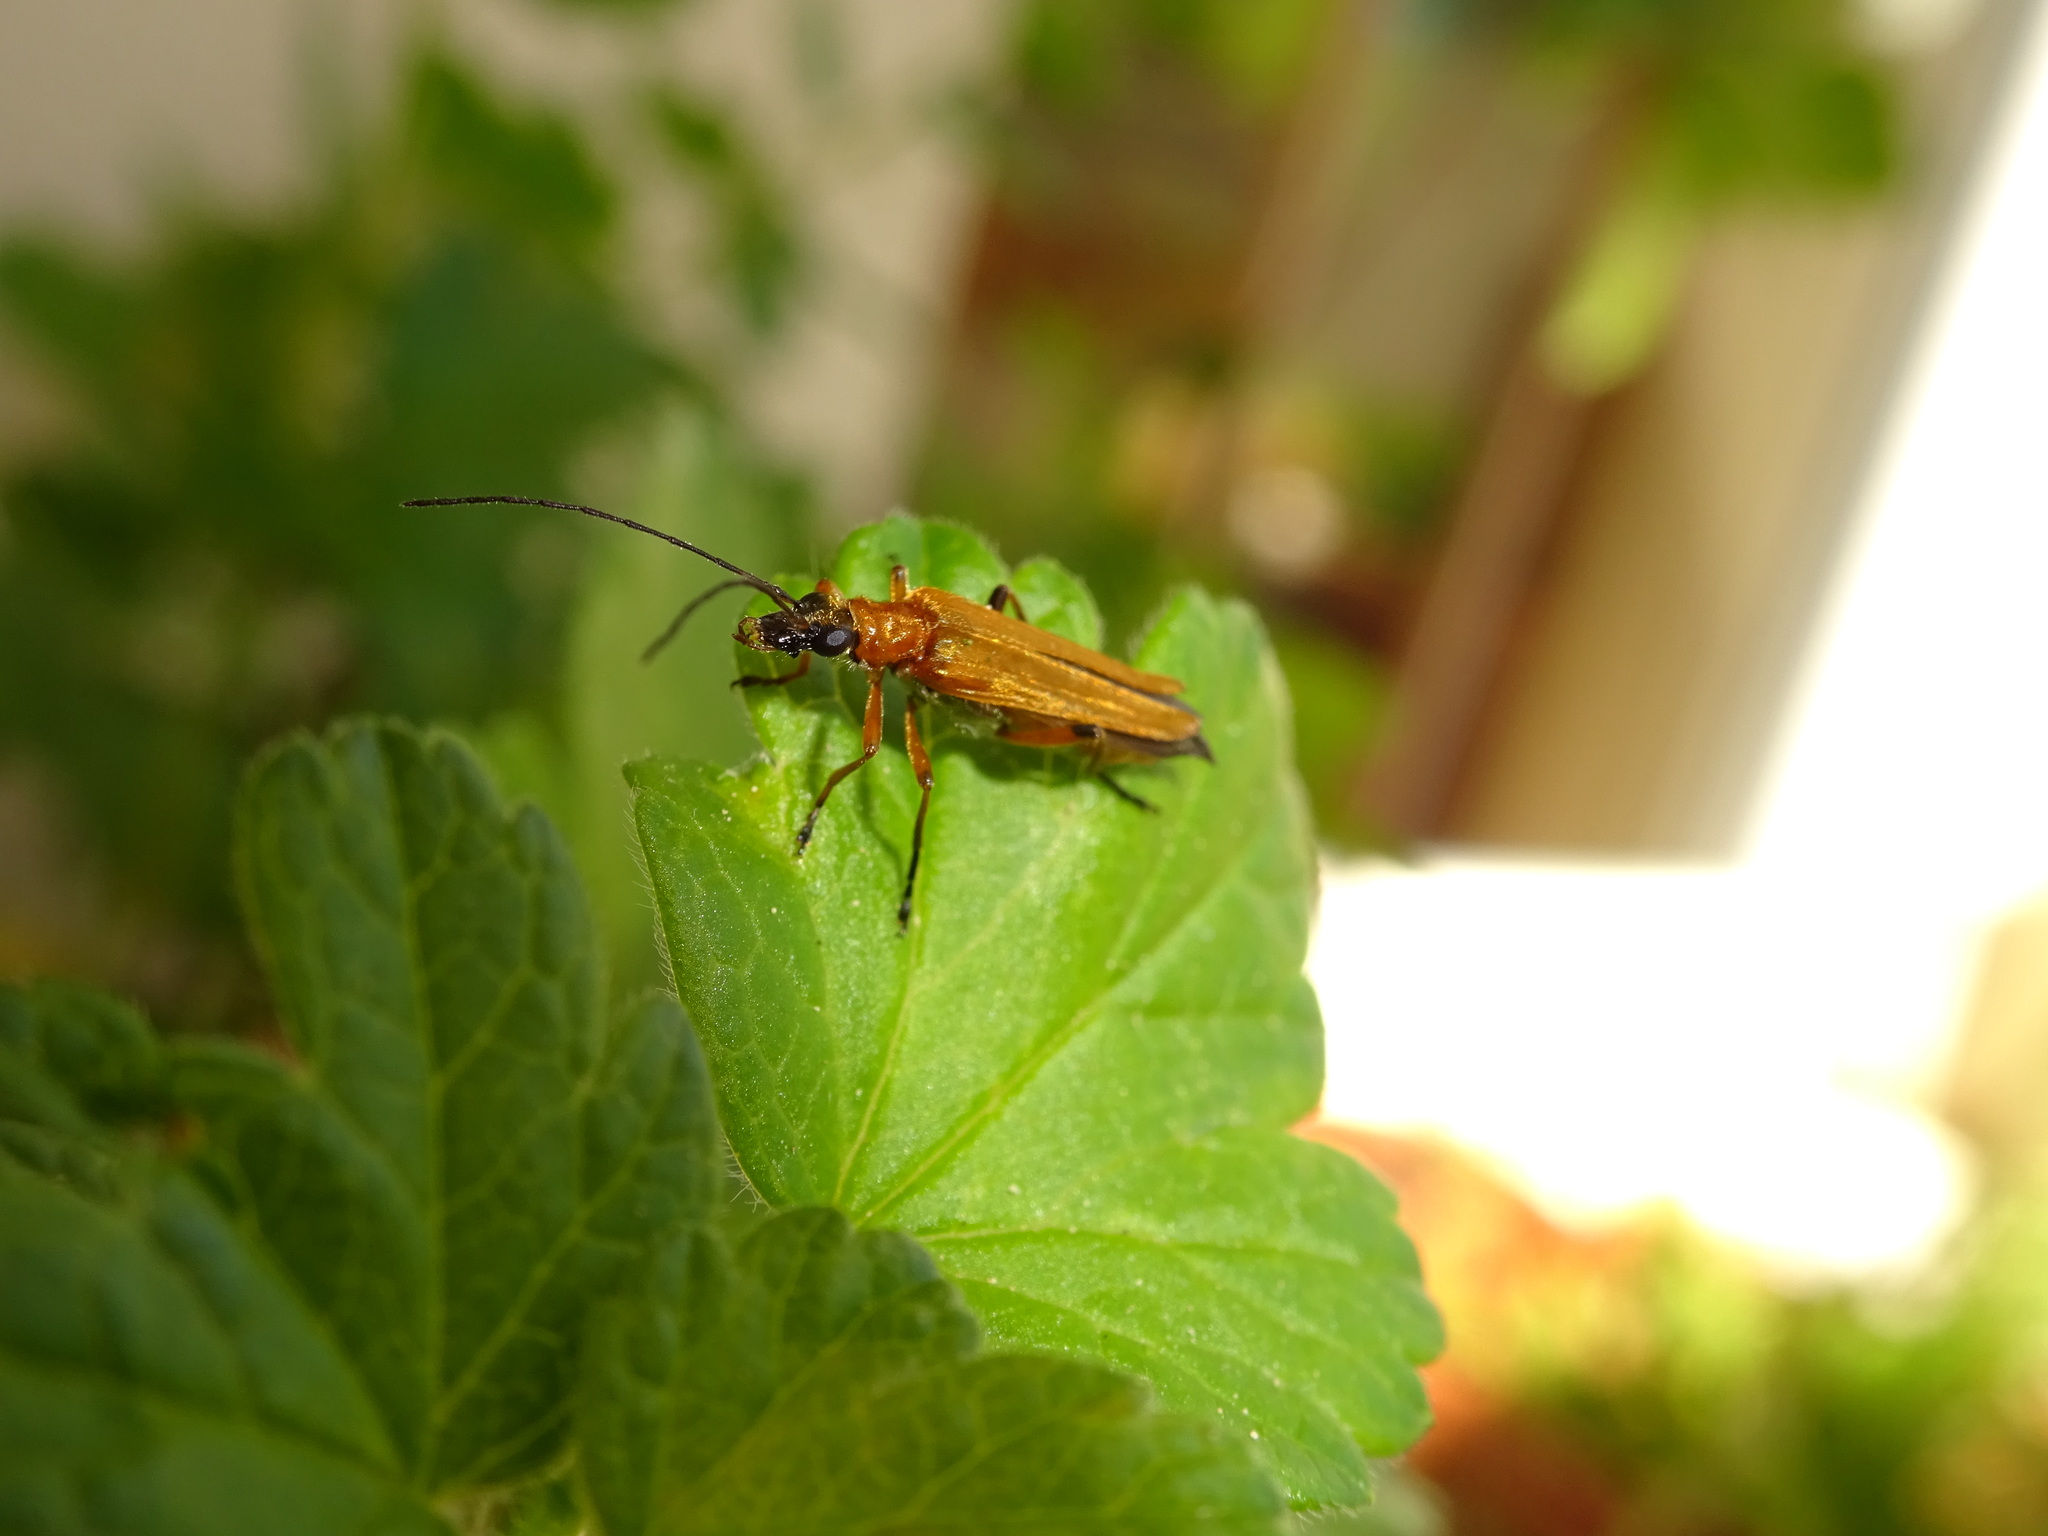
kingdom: Animalia
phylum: Arthropoda
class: Insecta
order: Coleoptera
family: Oedemeridae
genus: Oedemera
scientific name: Oedemera podagrariae
